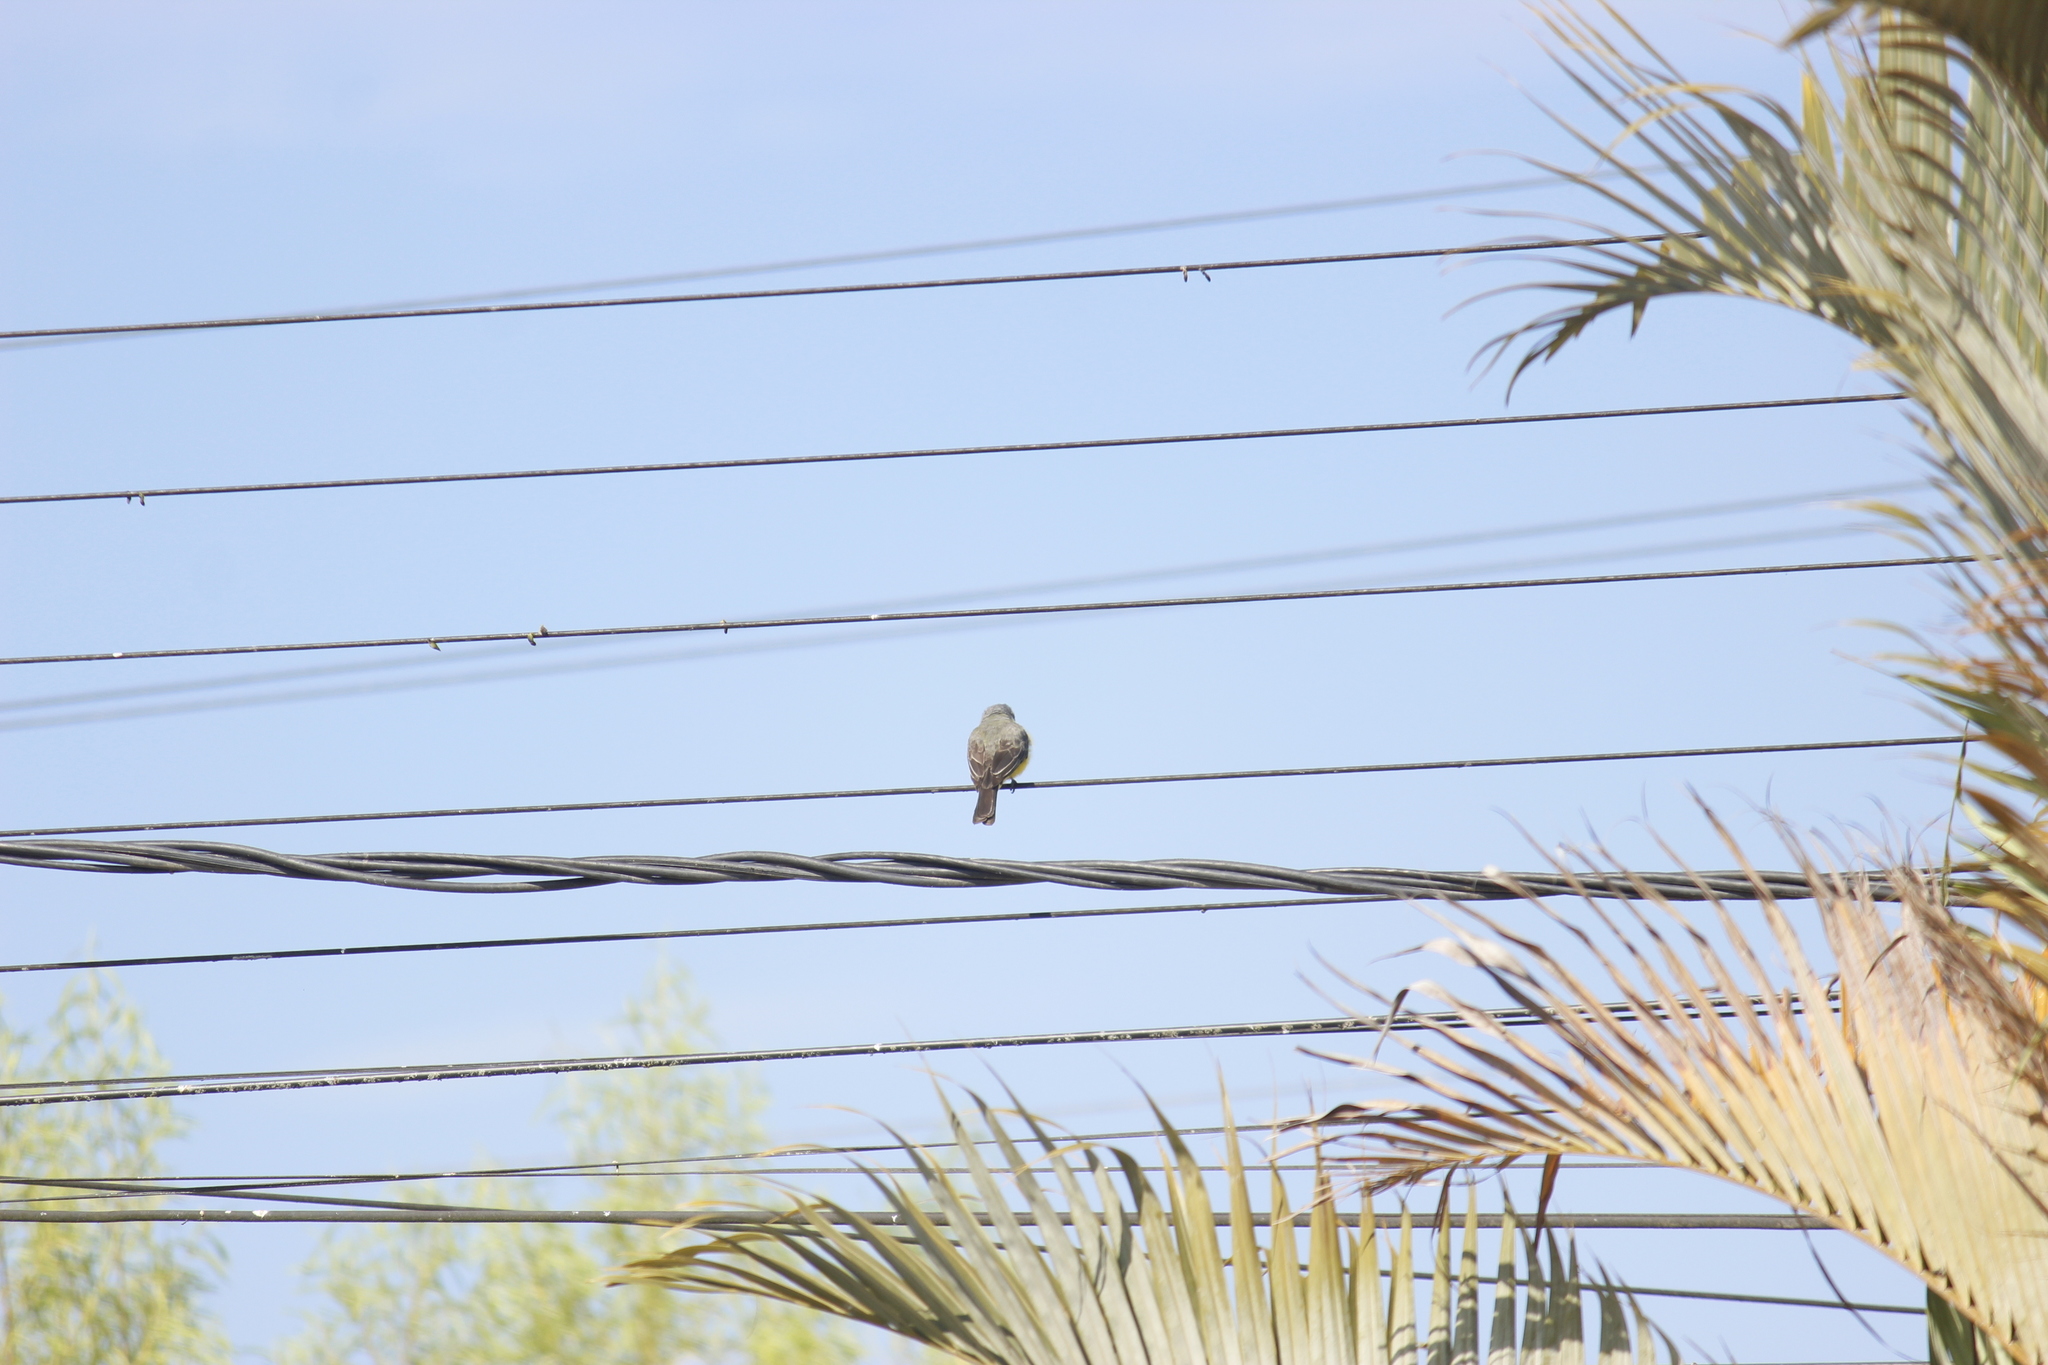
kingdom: Animalia
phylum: Chordata
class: Aves
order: Passeriformes
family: Tyrannidae
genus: Tyrannus
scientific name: Tyrannus melancholicus
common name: Tropical kingbird
